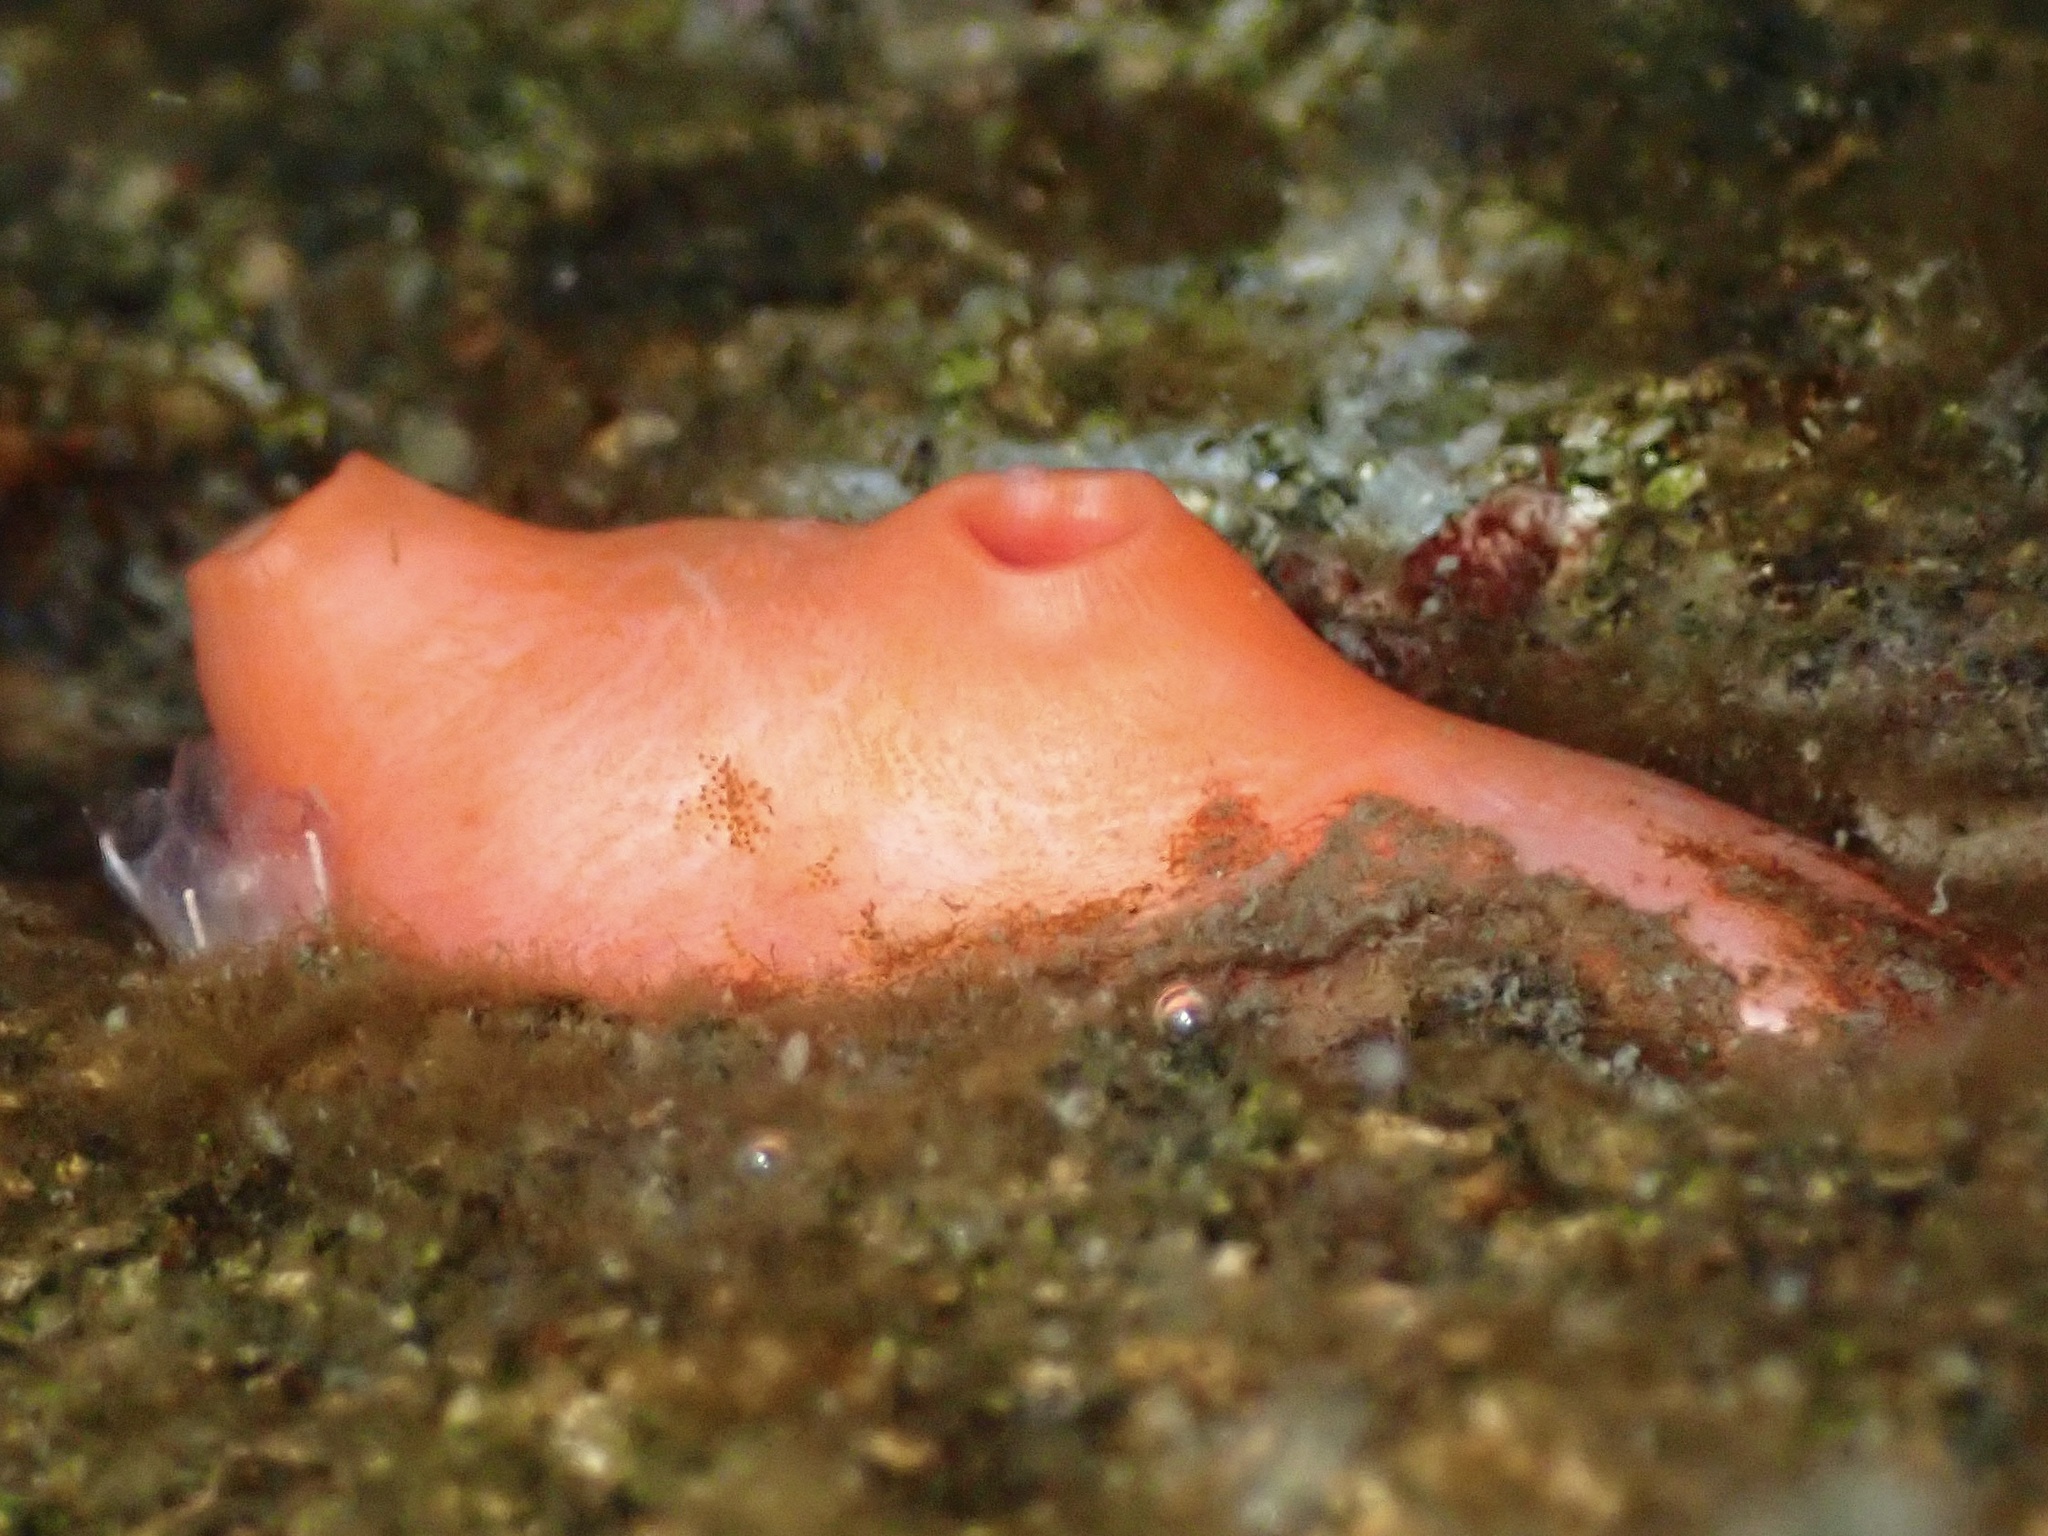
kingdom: Animalia
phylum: Chordata
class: Ascidiacea
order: Stolidobranchia
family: Styelidae
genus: Cnemidocarpa
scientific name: Cnemidocarpa finmarkiensis
